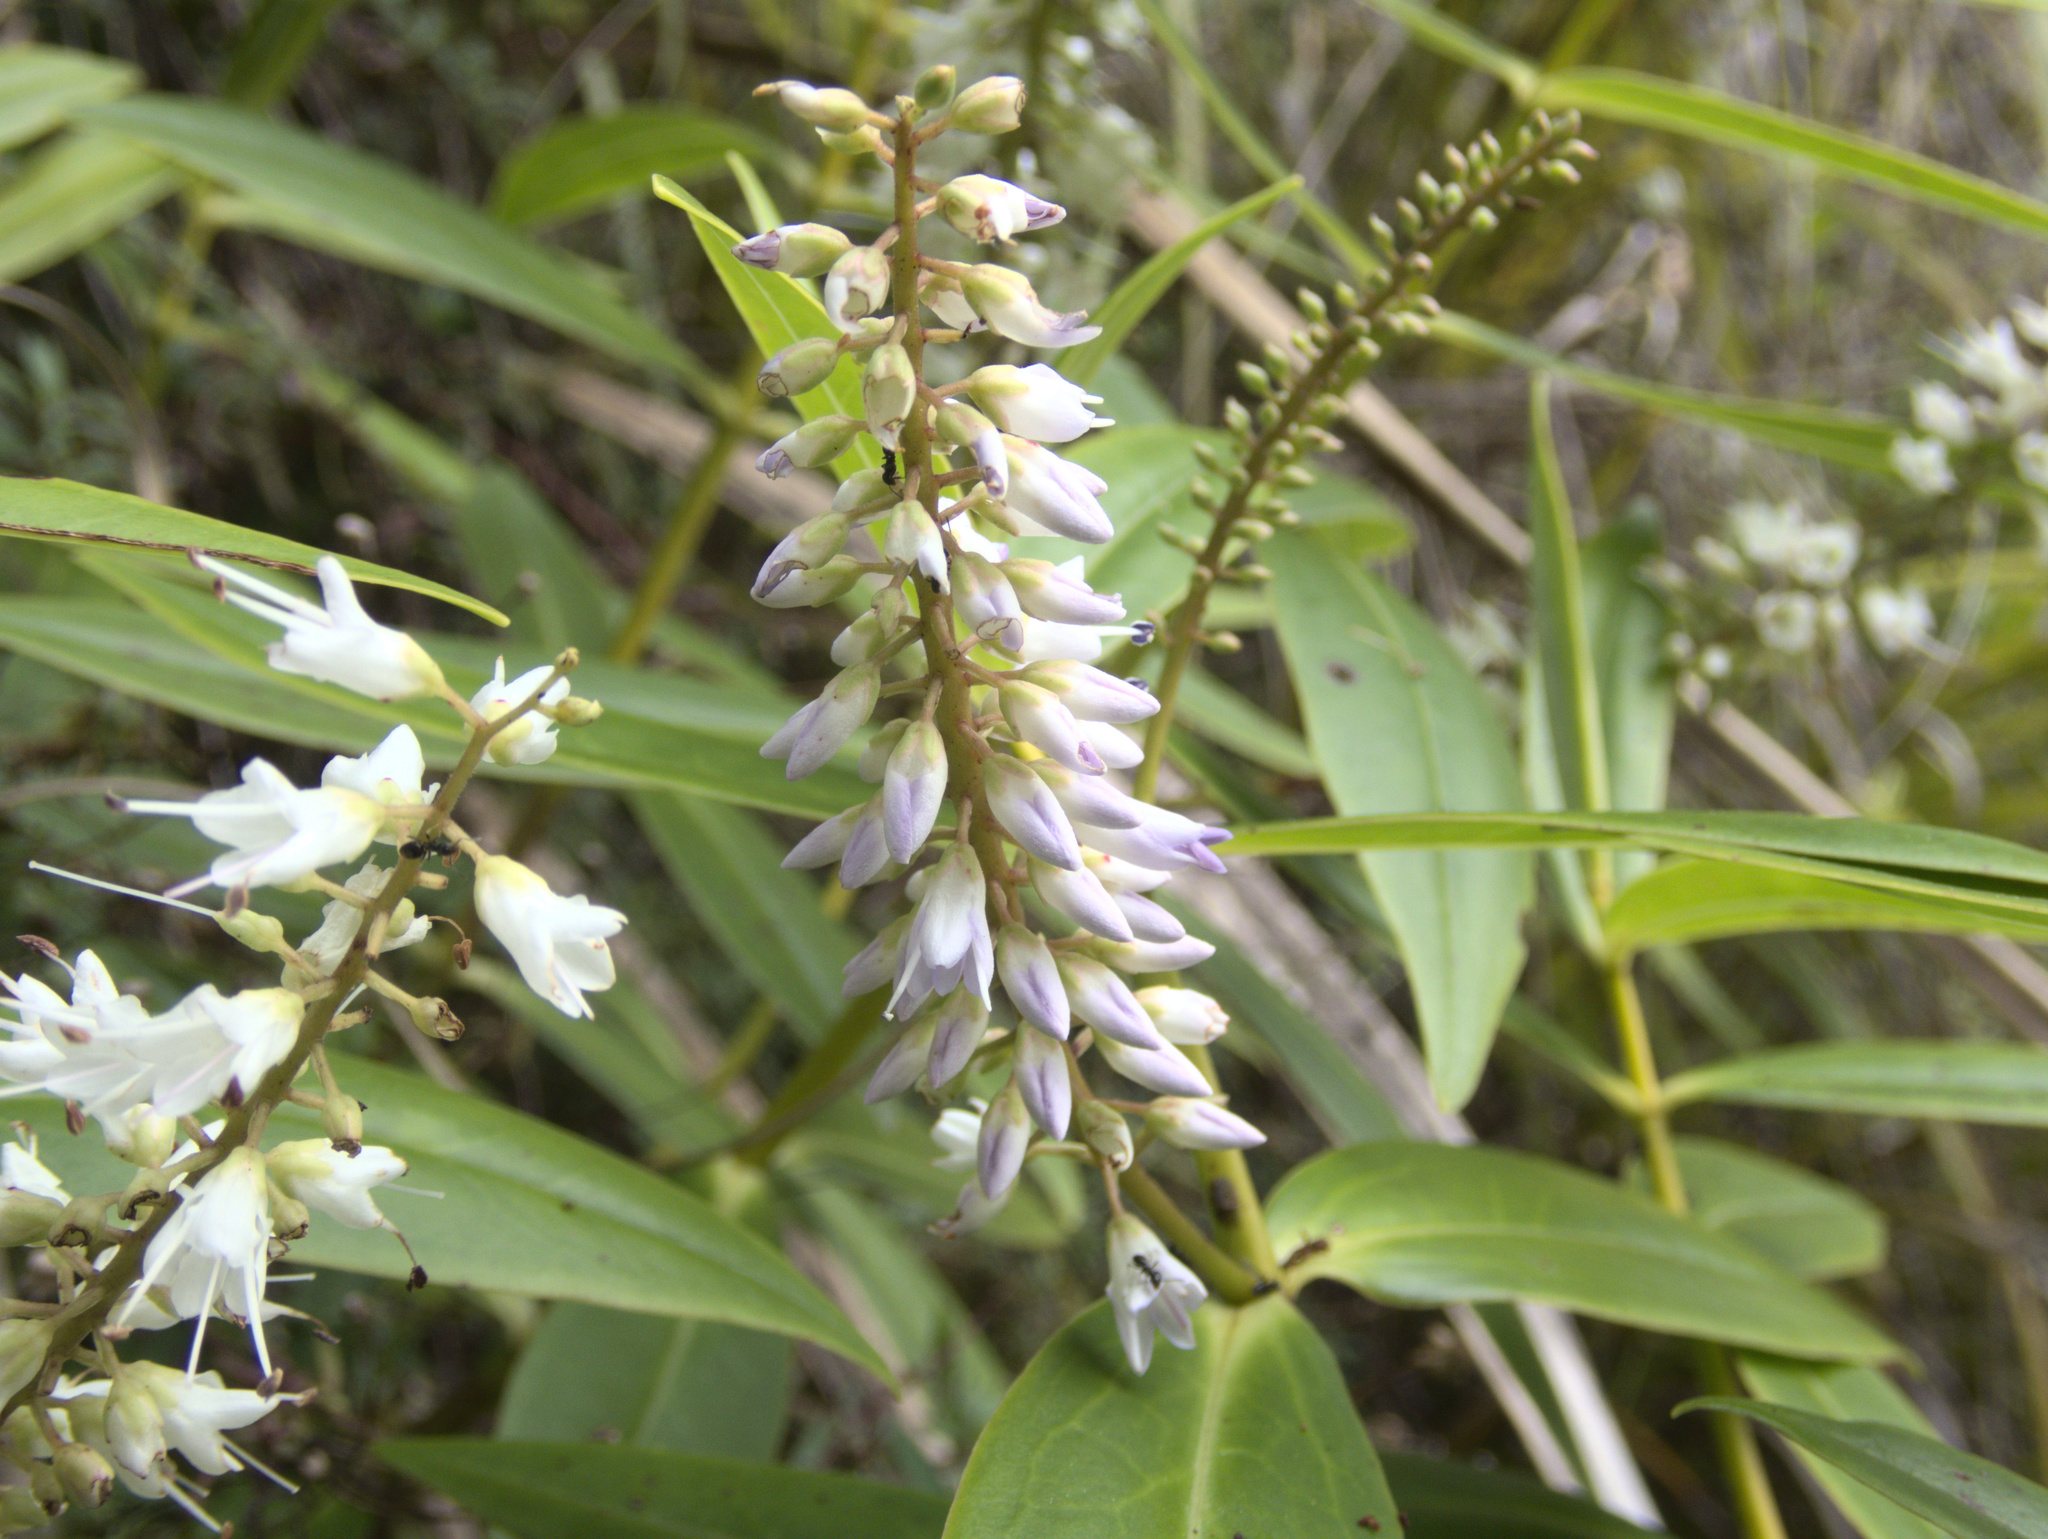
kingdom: Plantae
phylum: Tracheophyta
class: Magnoliopsida
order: Lamiales
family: Plantaginaceae
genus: Veronica
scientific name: Veronica macrocarpa
